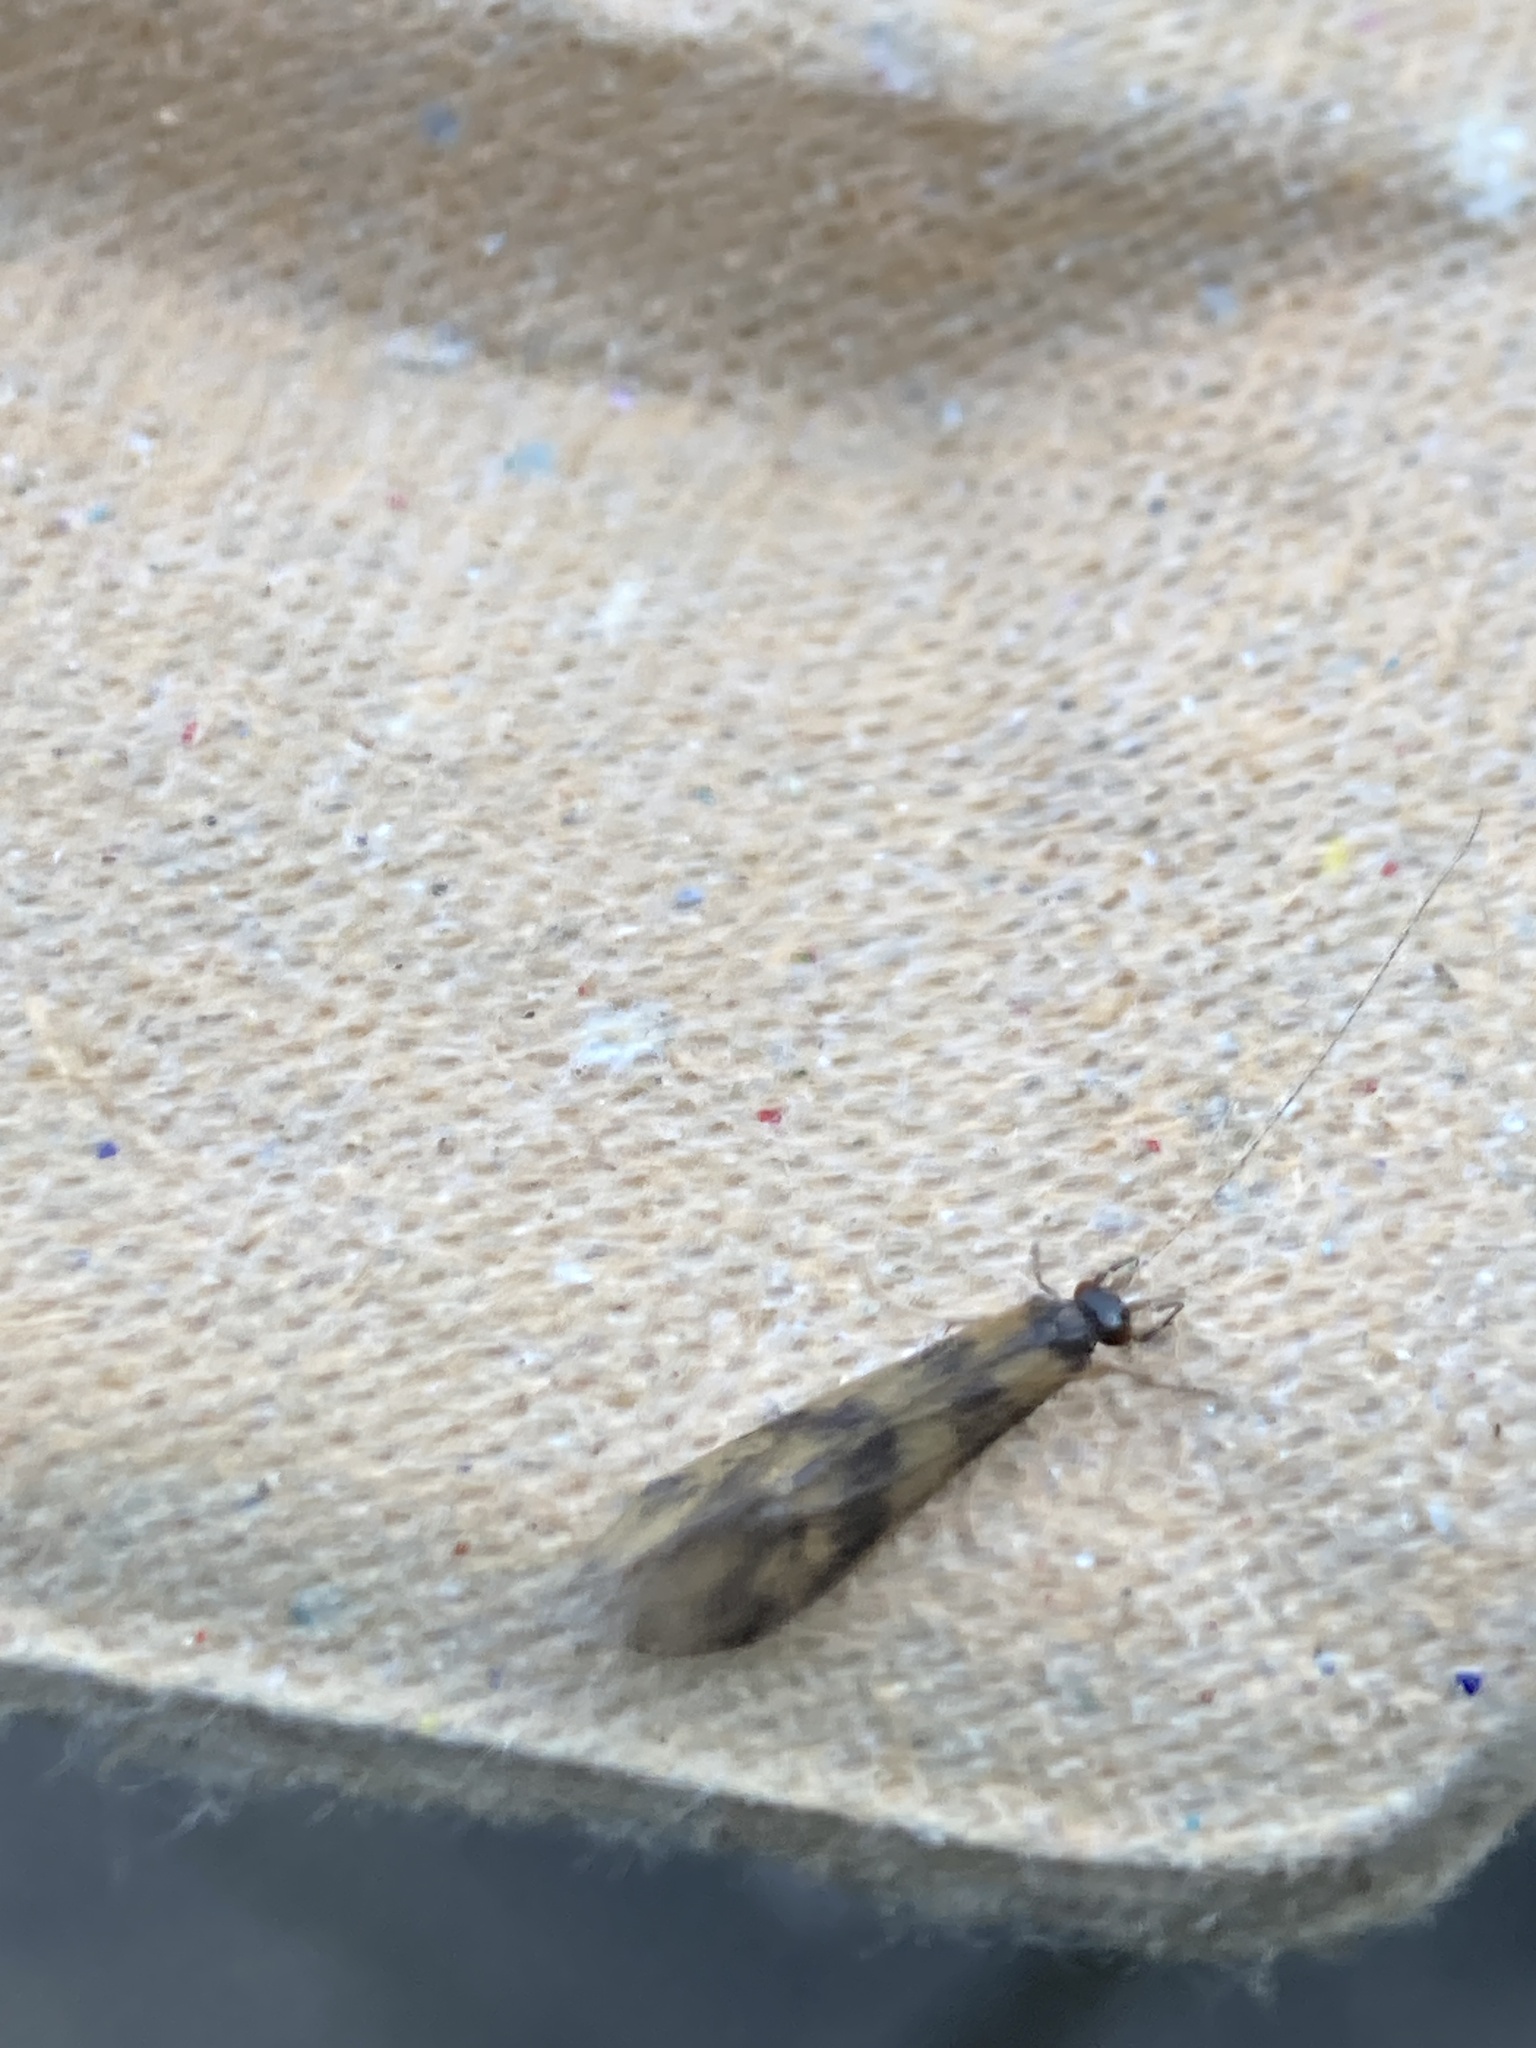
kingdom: Animalia
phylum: Arthropoda
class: Insecta
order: Trichoptera
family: Leptoceridae
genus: Mystacides
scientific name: Mystacides longicornis
